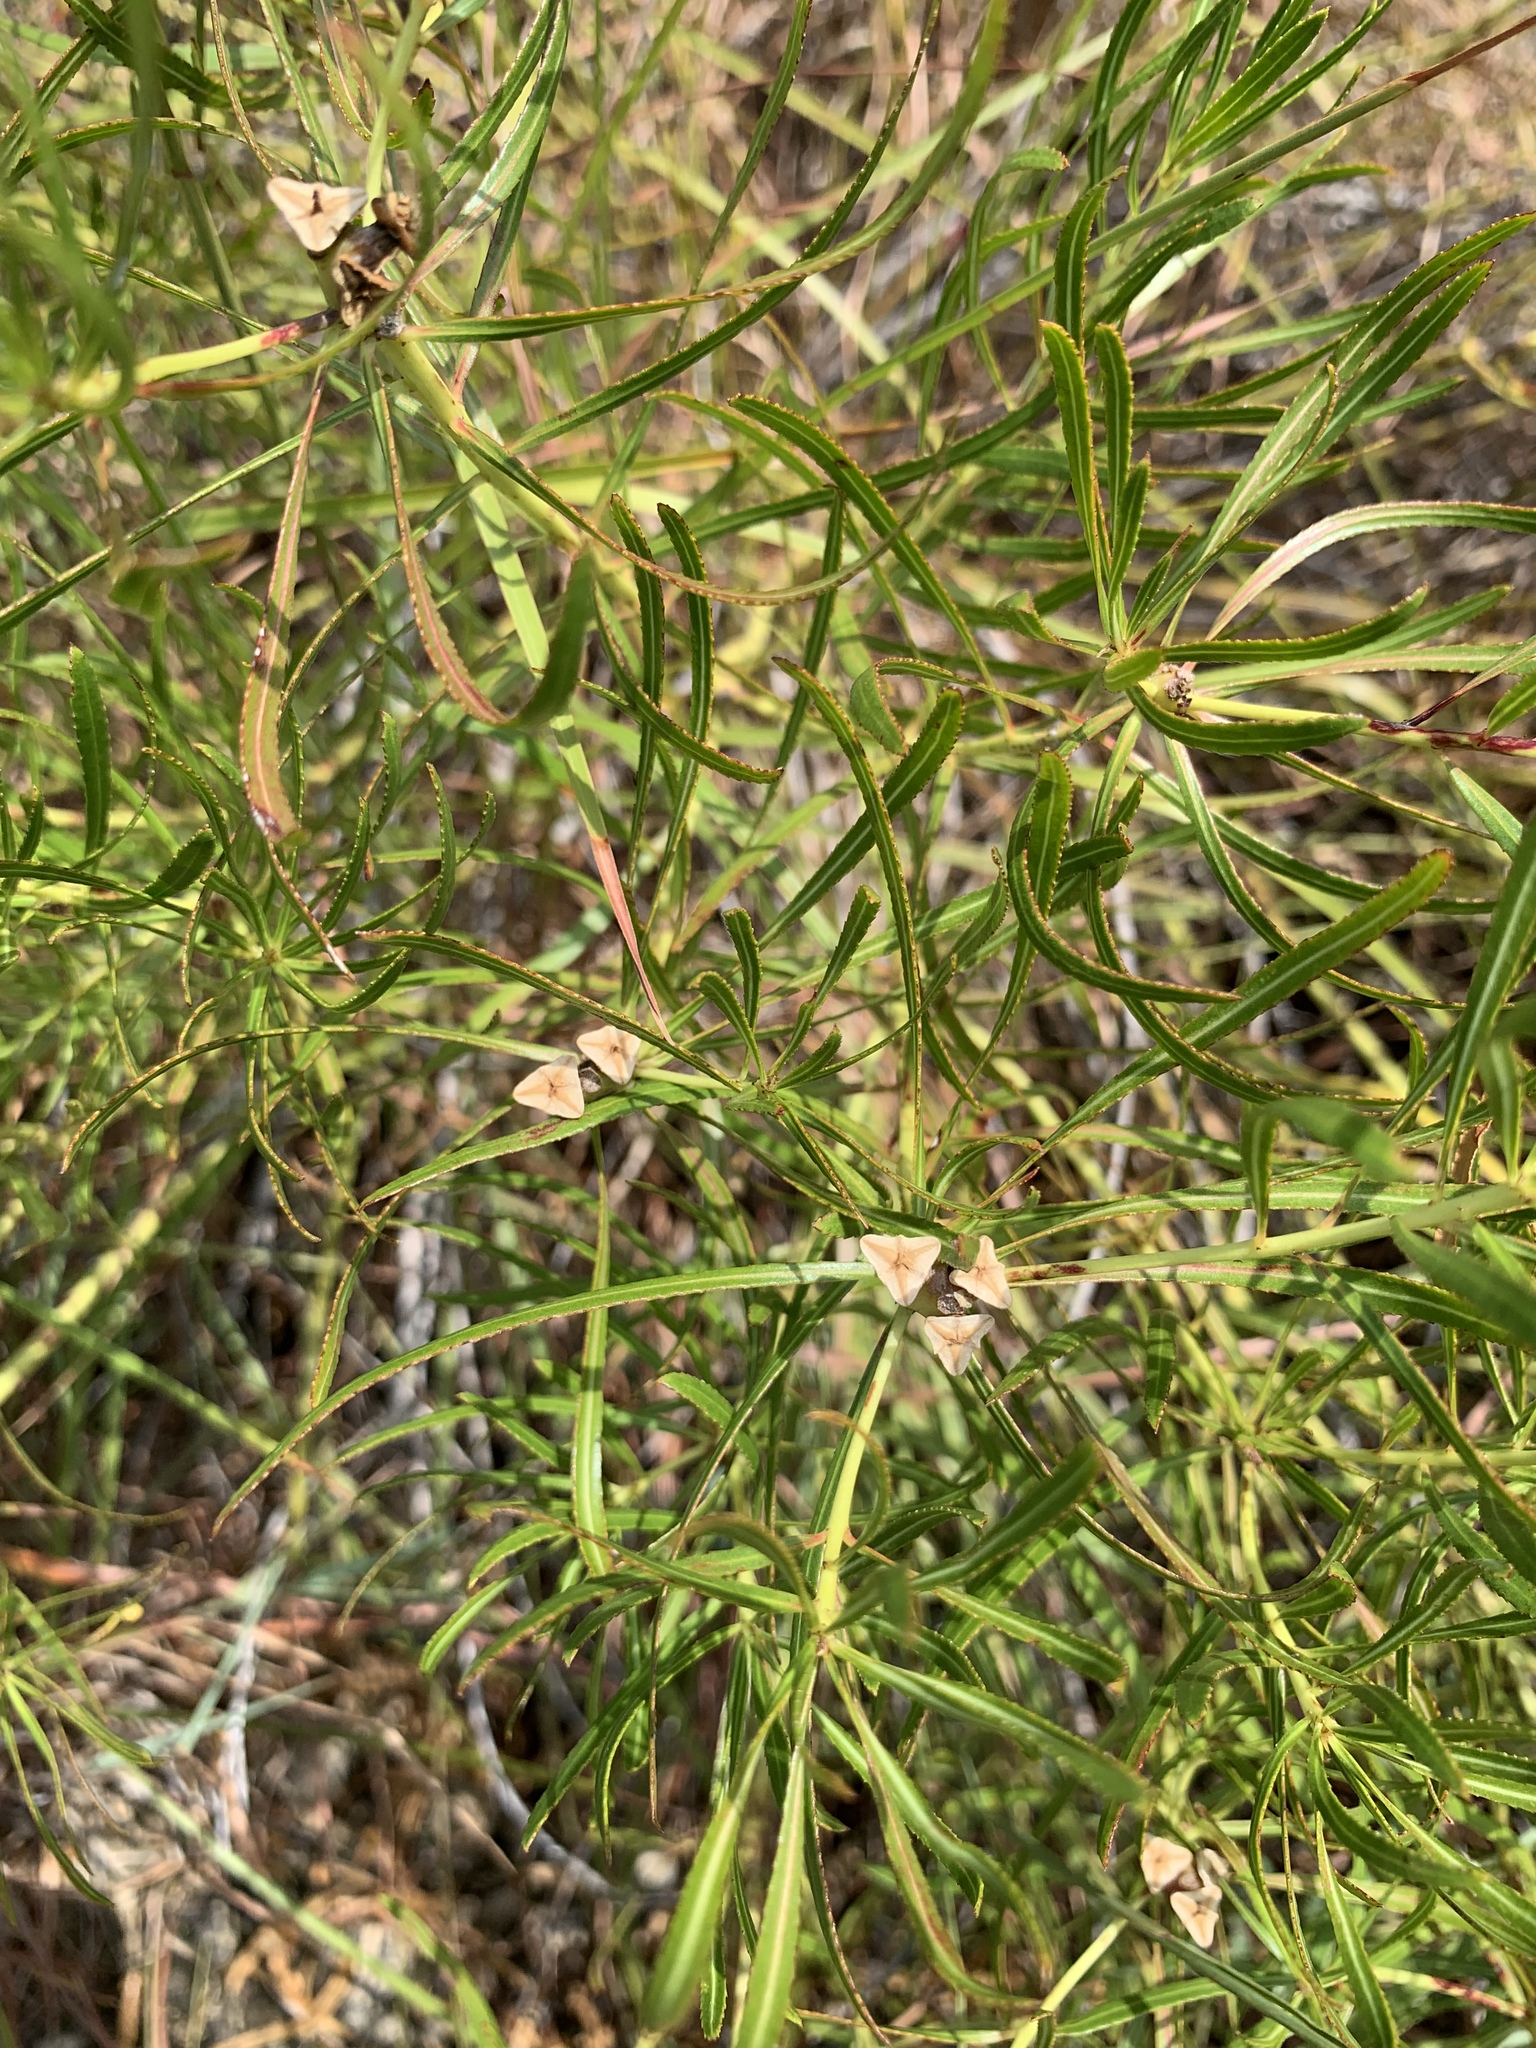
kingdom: Plantae
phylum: Tracheophyta
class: Magnoliopsida
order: Malpighiales
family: Euphorbiaceae
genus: Stillingia
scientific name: Stillingia texana
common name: Texas stillingia
